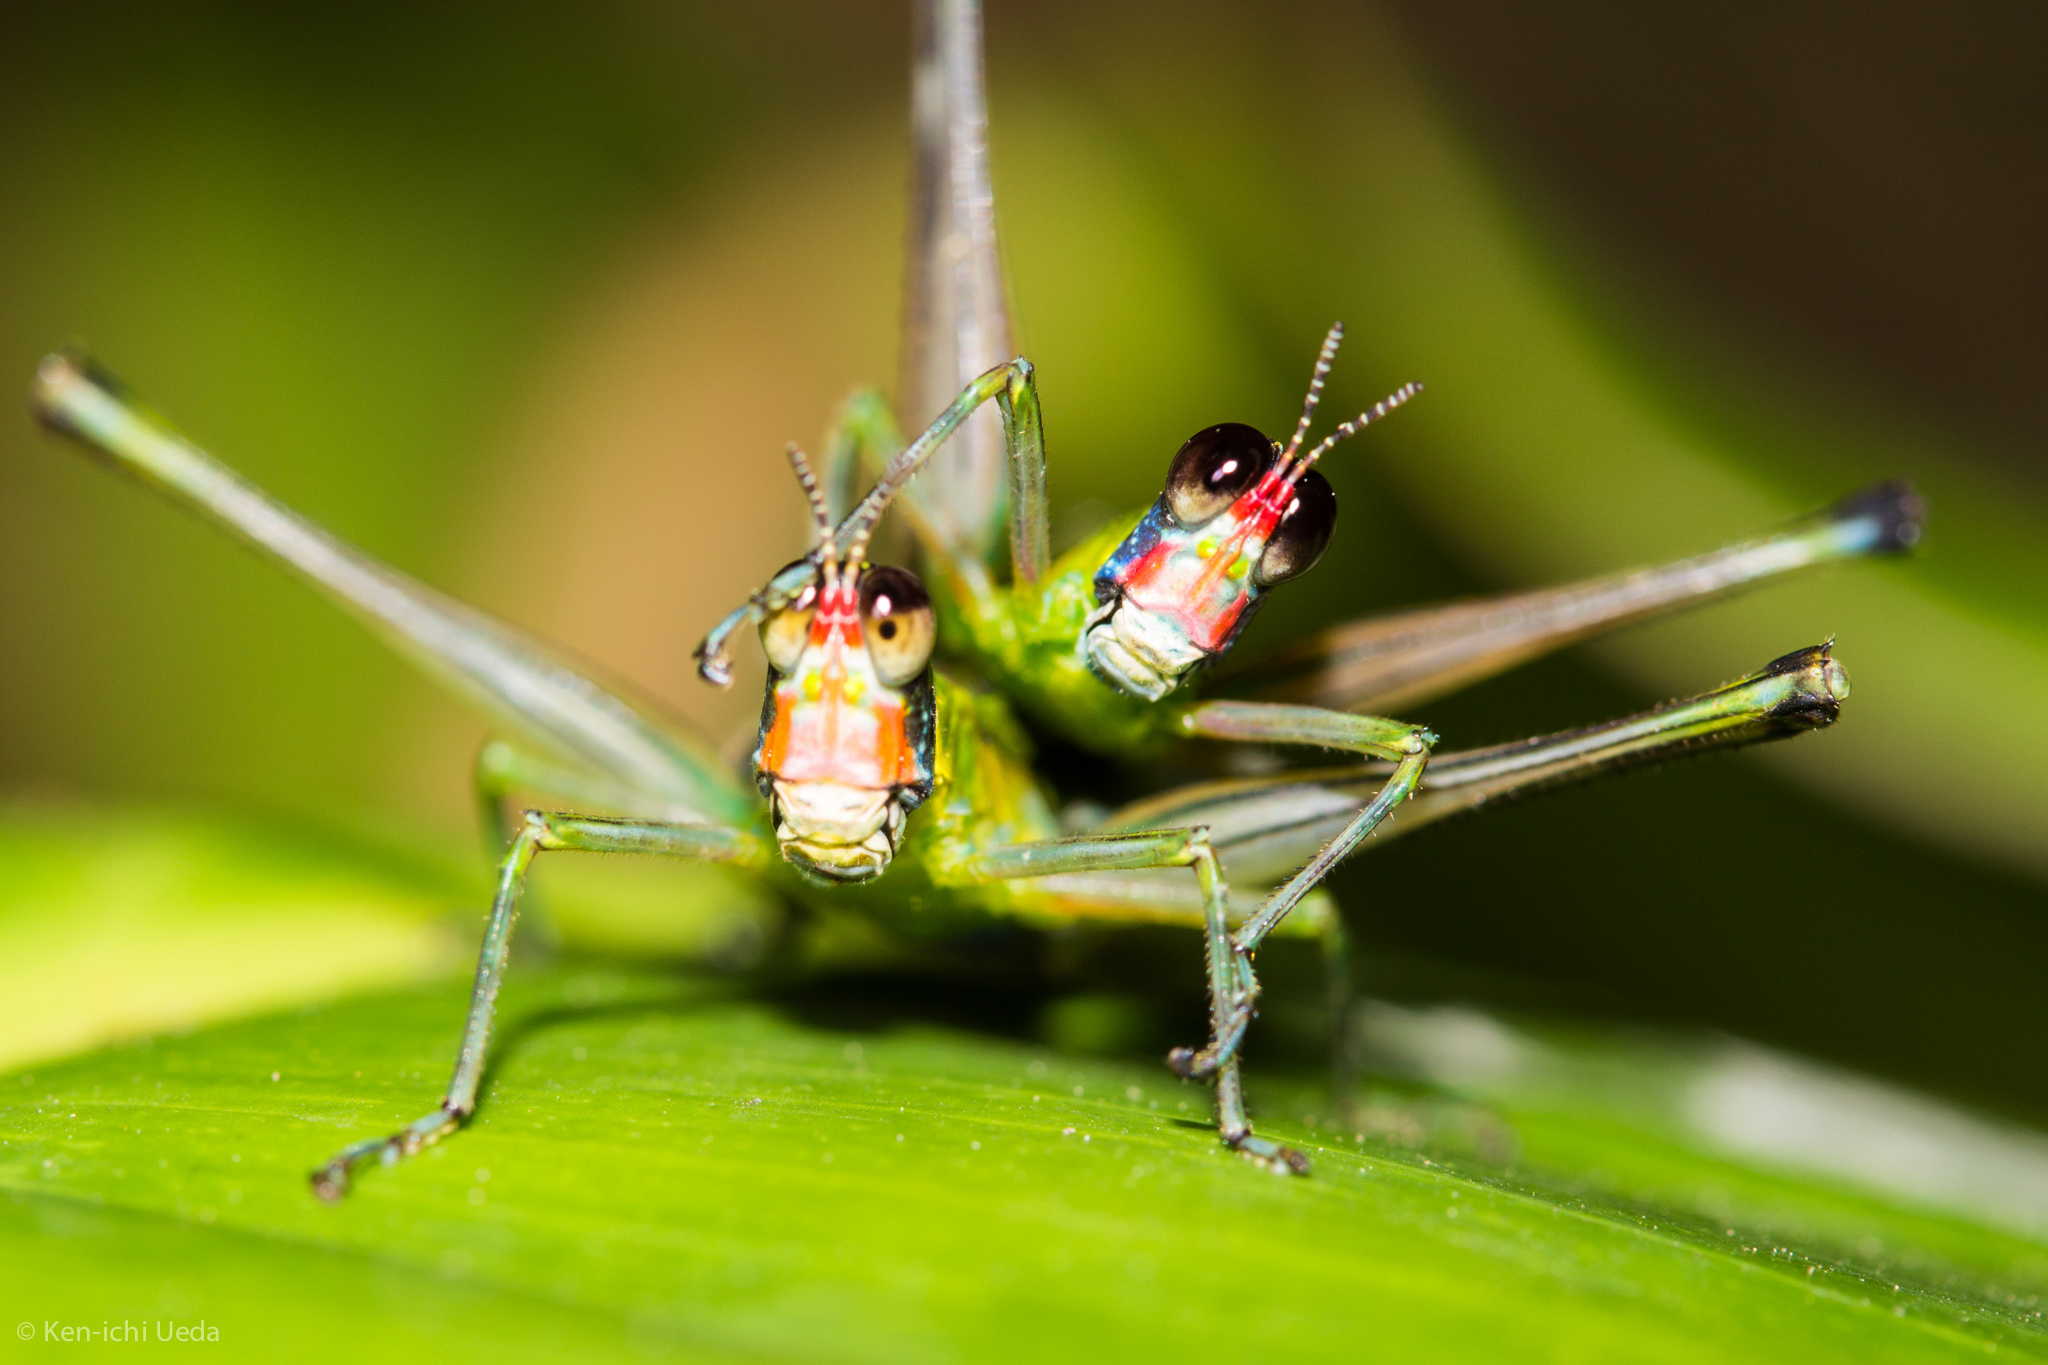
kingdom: Animalia
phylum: Arthropoda
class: Insecta
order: Orthoptera
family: Eumastacidae
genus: Zeromastax
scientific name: Zeromastax selenesii
